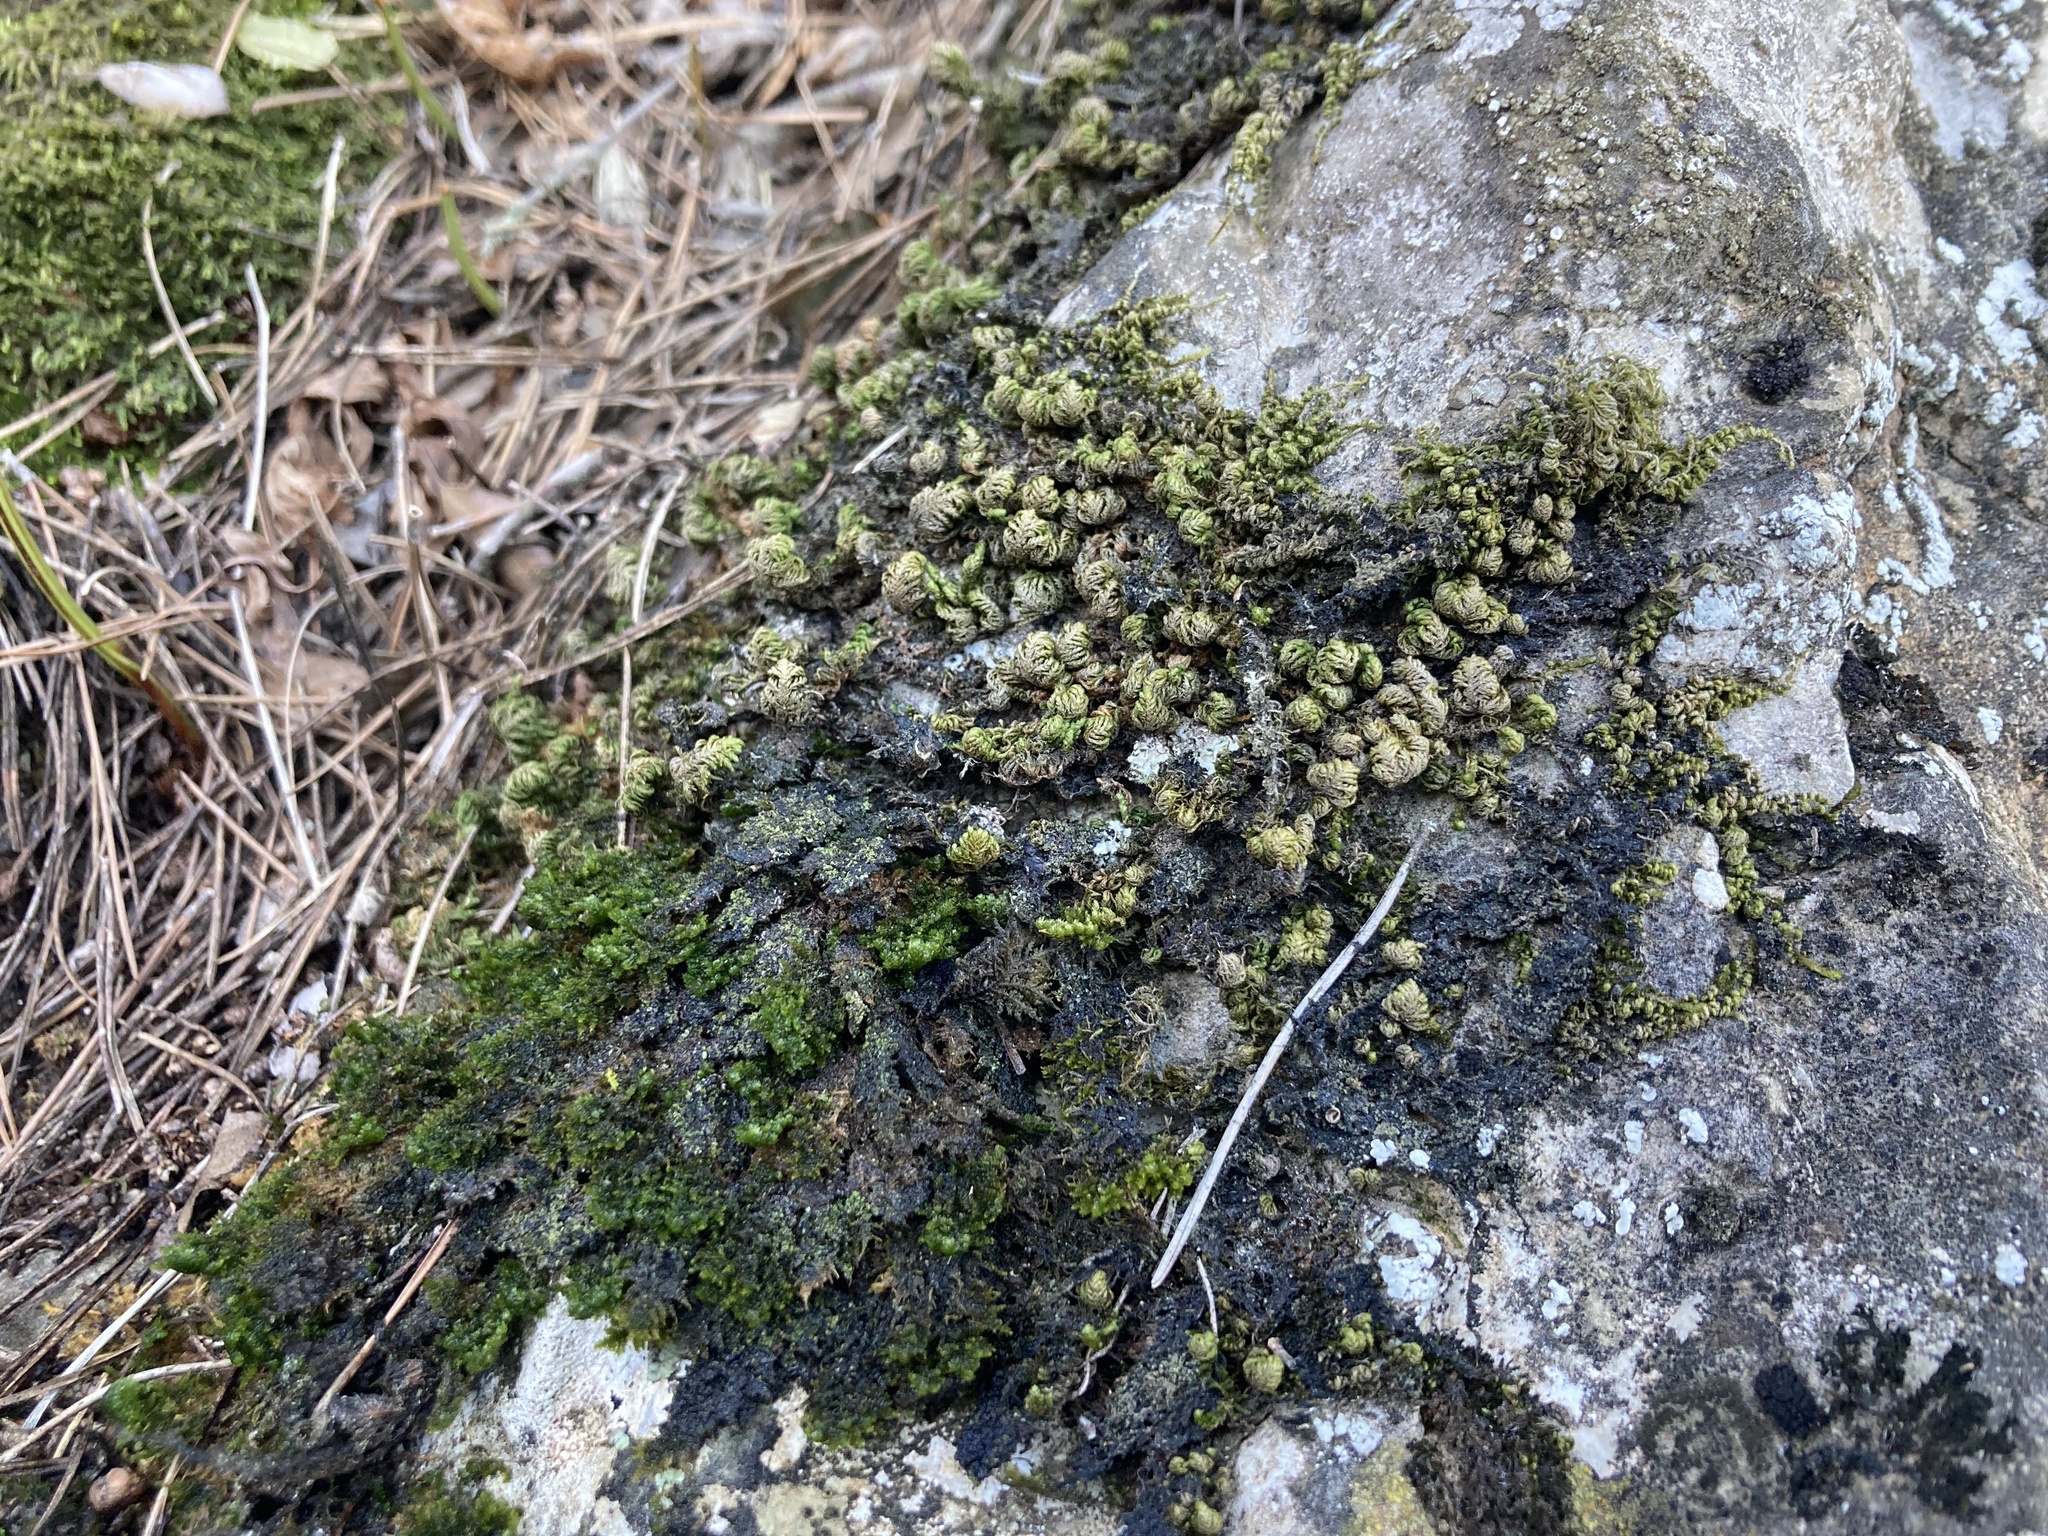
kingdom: Plantae
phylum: Bryophyta
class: Bryopsida
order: Hypnales
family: Neckeraceae
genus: Leptodon
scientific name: Leptodon smithii
